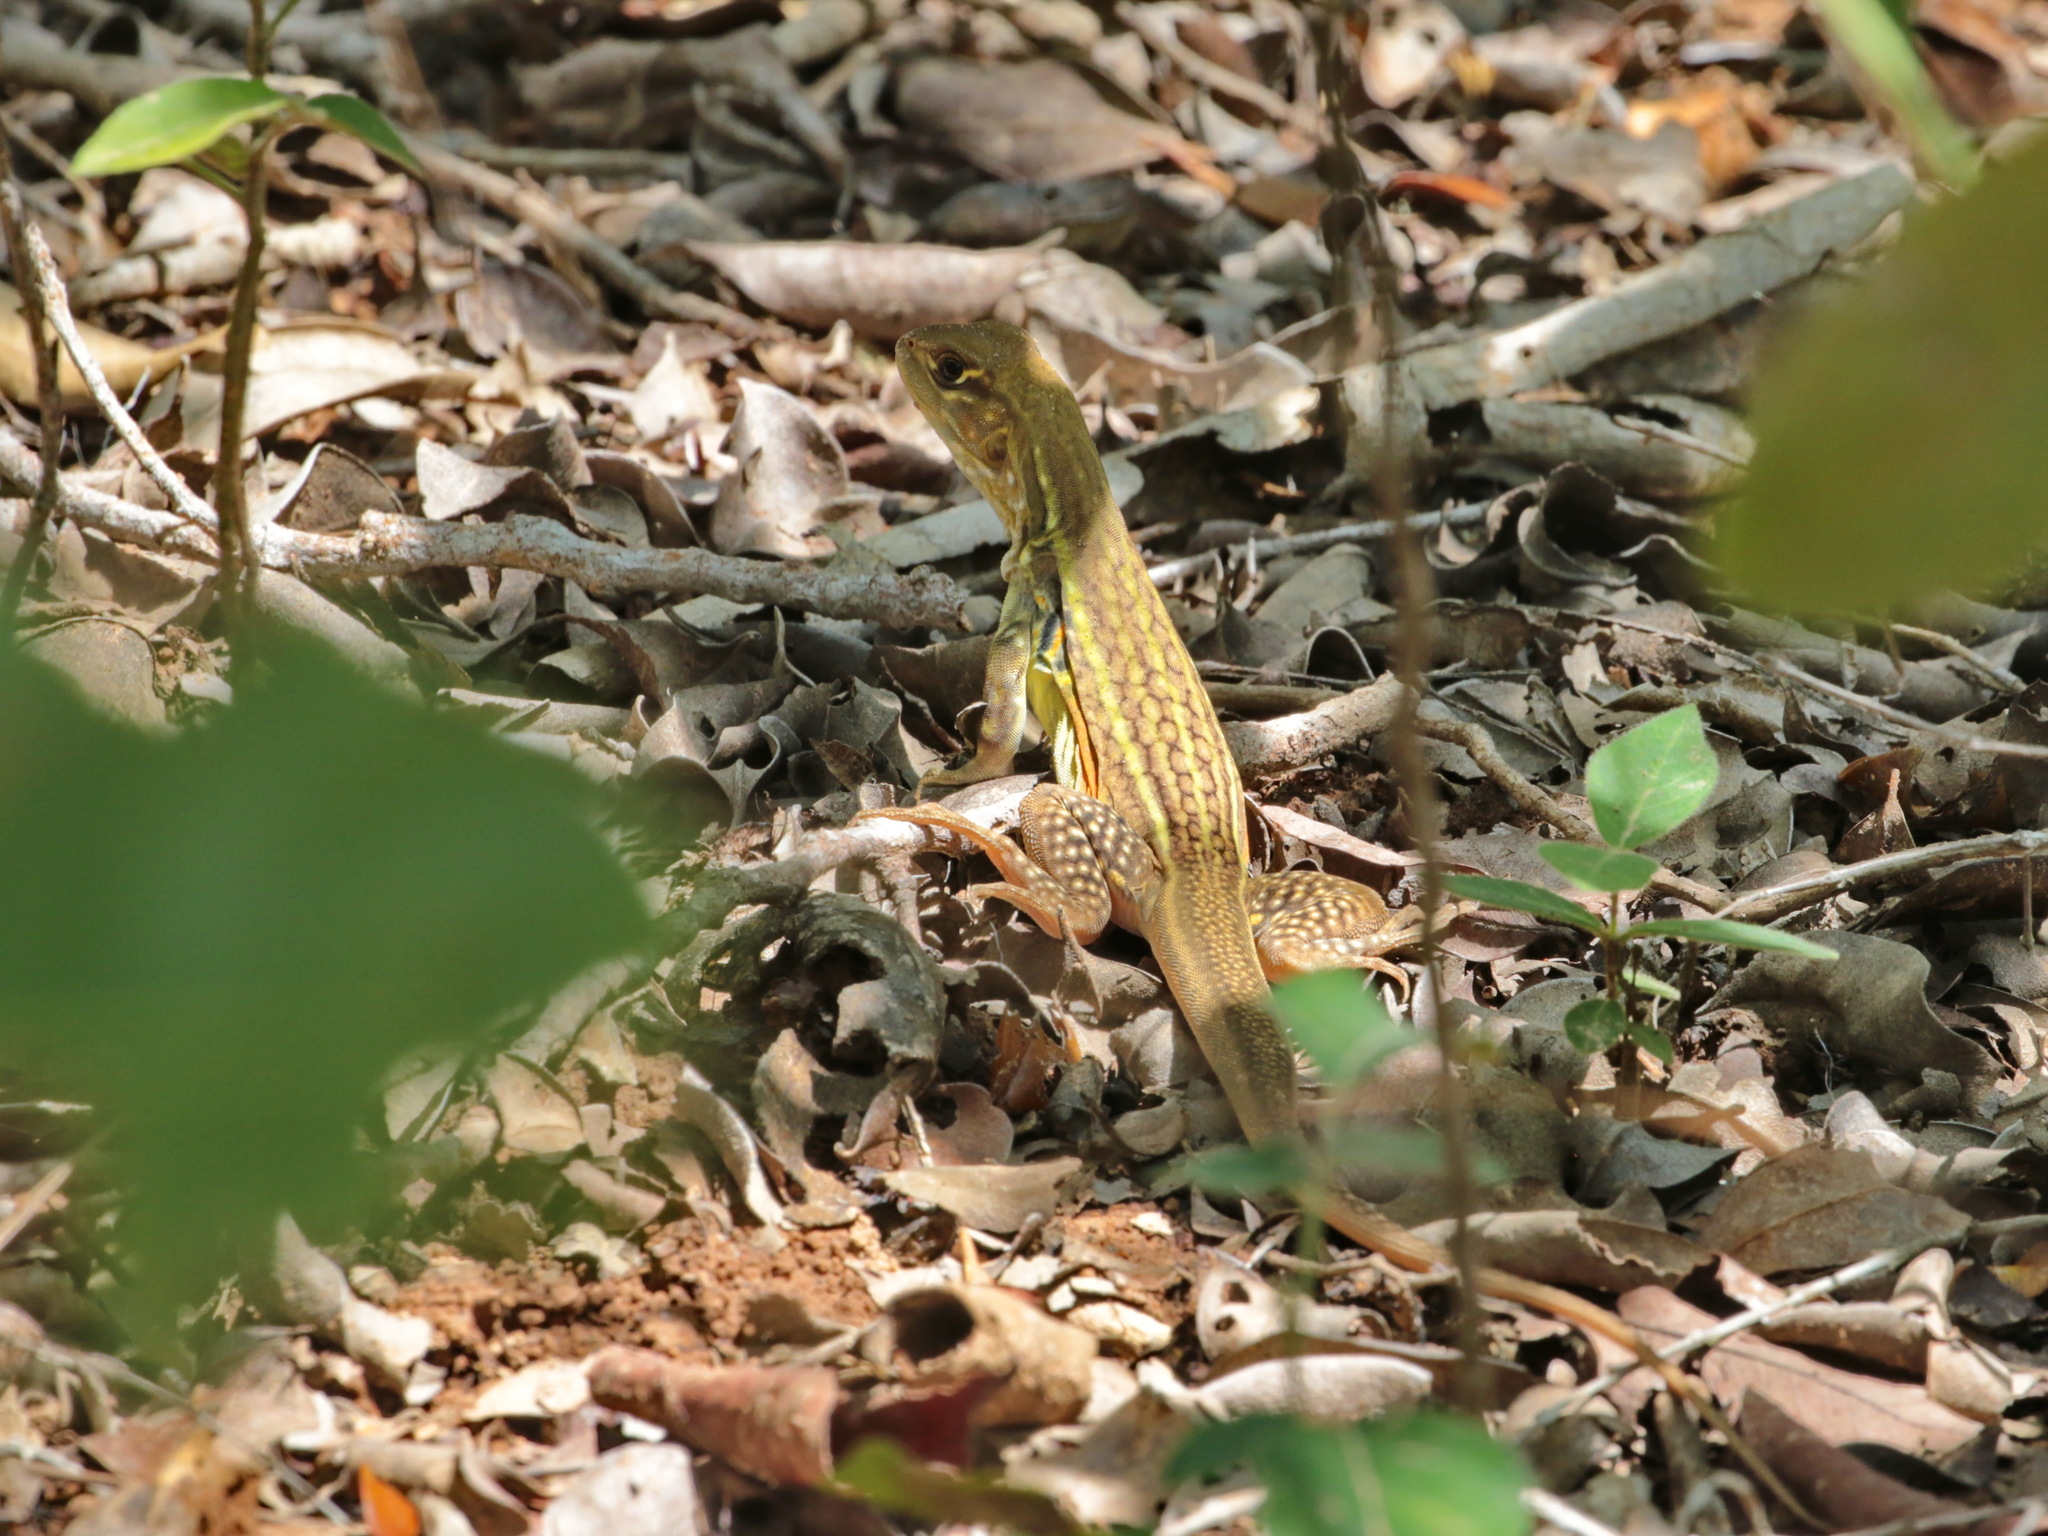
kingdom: Animalia
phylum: Chordata
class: Squamata
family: Agamidae
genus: Leiolepis
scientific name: Leiolepis rubritaeniata
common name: Reeves' butterfly lizard
